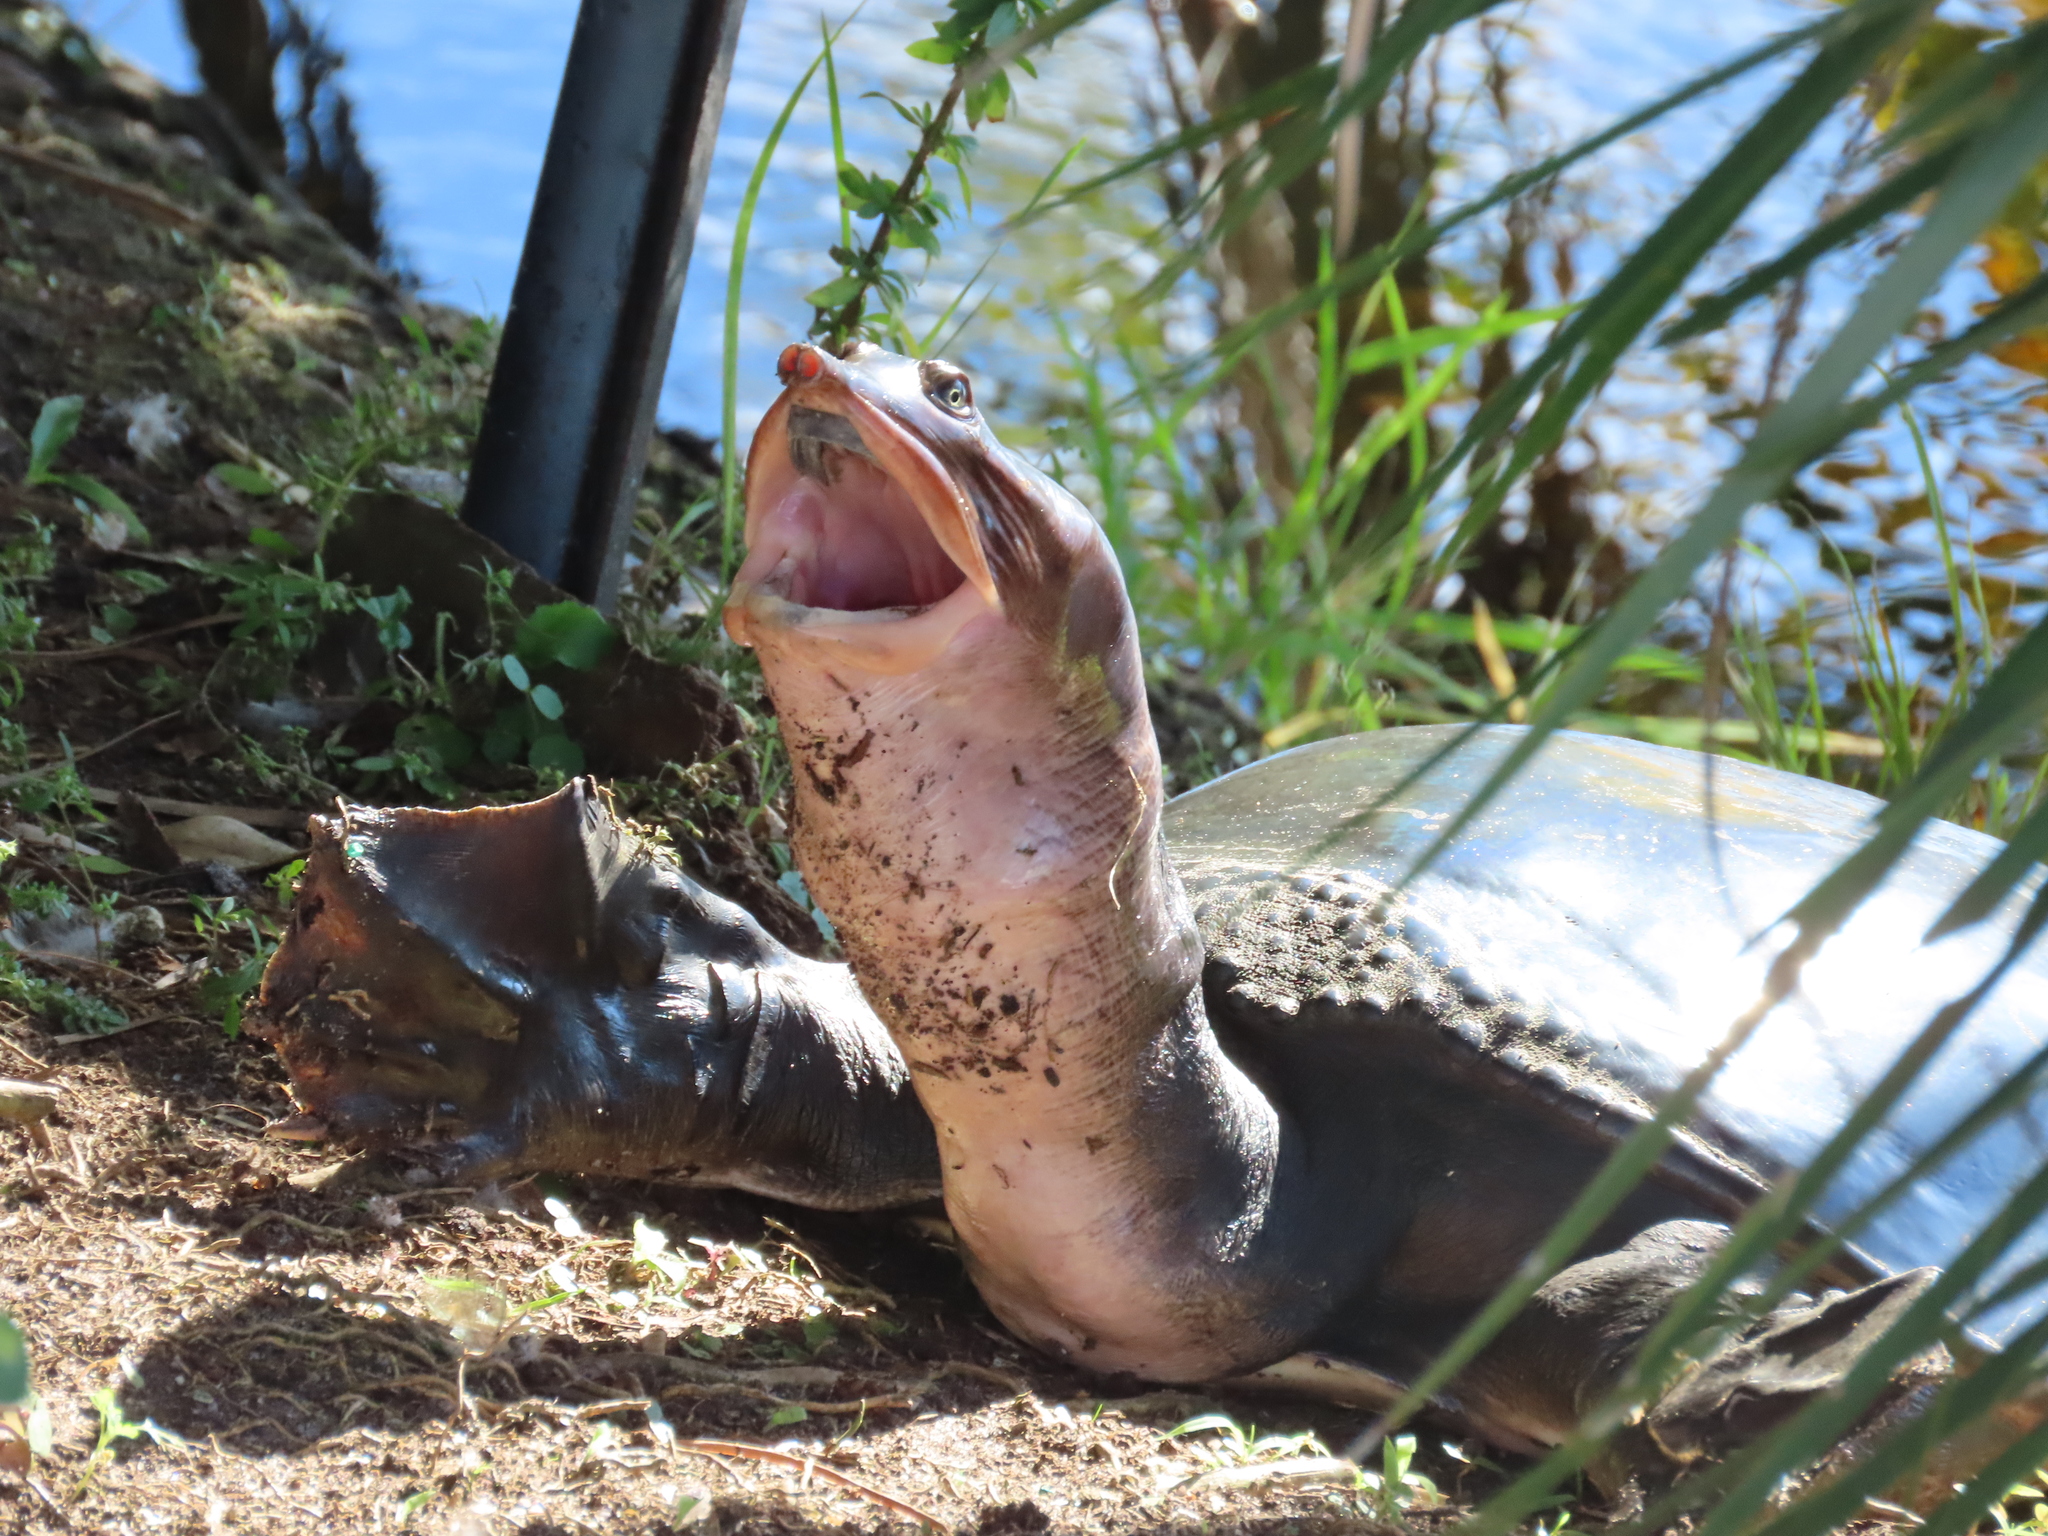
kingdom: Animalia
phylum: Chordata
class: Testudines
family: Trionychidae
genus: Apalone
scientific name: Apalone ferox
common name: Florida softshell turtle
